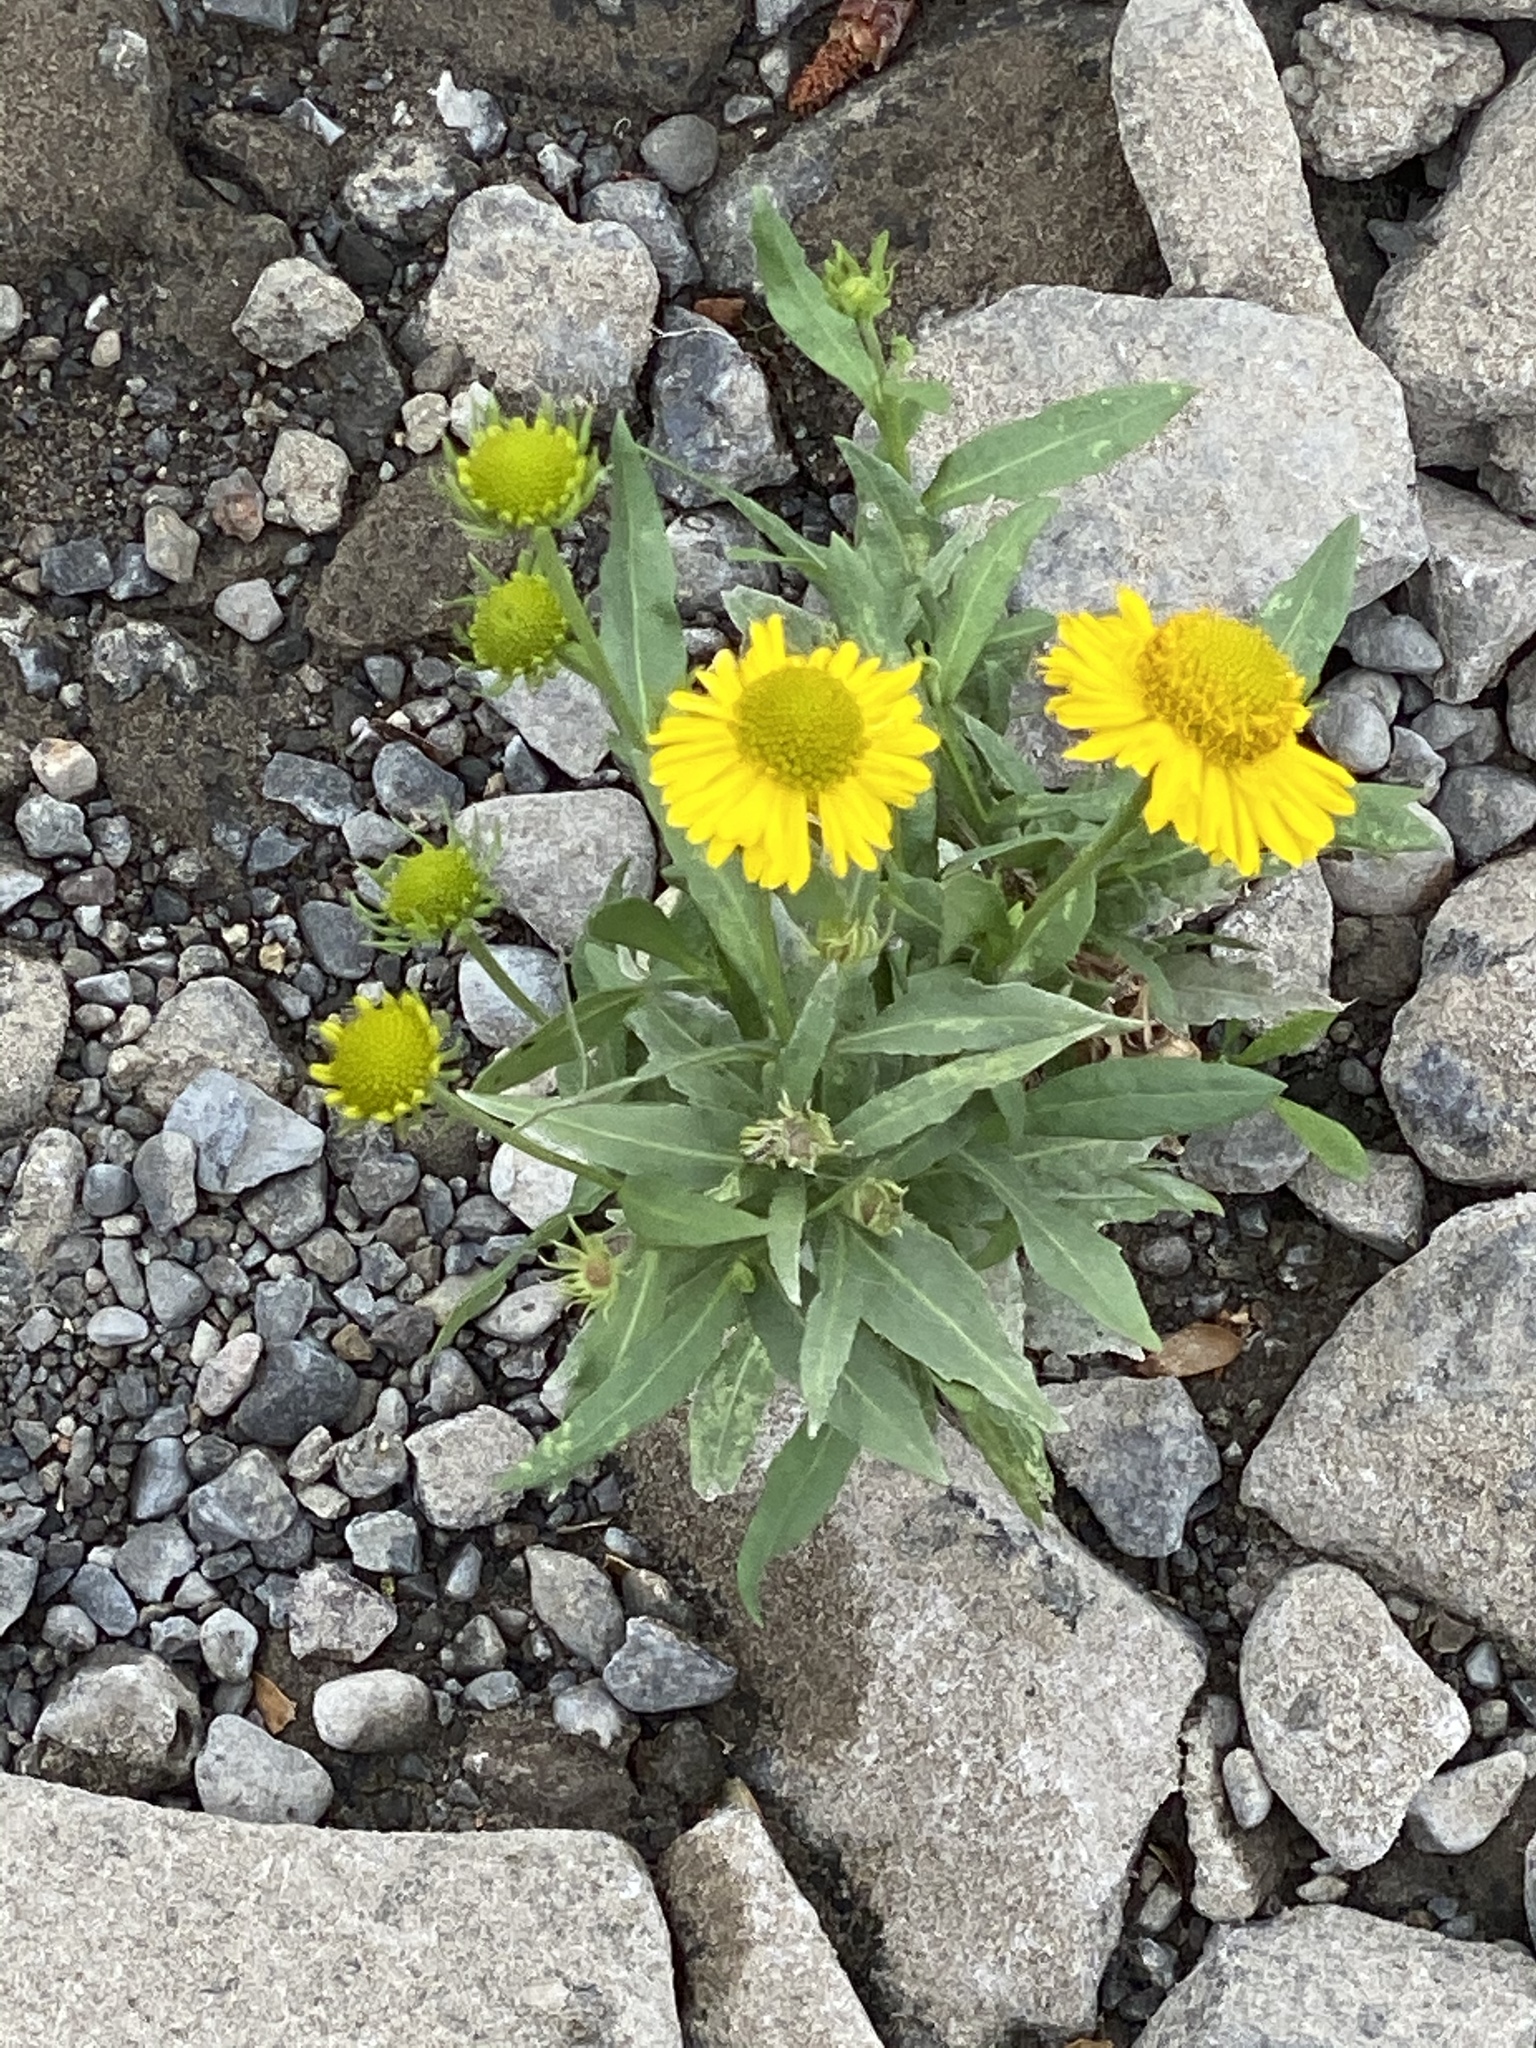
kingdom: Plantae
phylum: Tracheophyta
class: Magnoliopsida
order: Asterales
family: Asteraceae
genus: Helenium
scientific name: Helenium autumnale
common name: Sneezeweed
